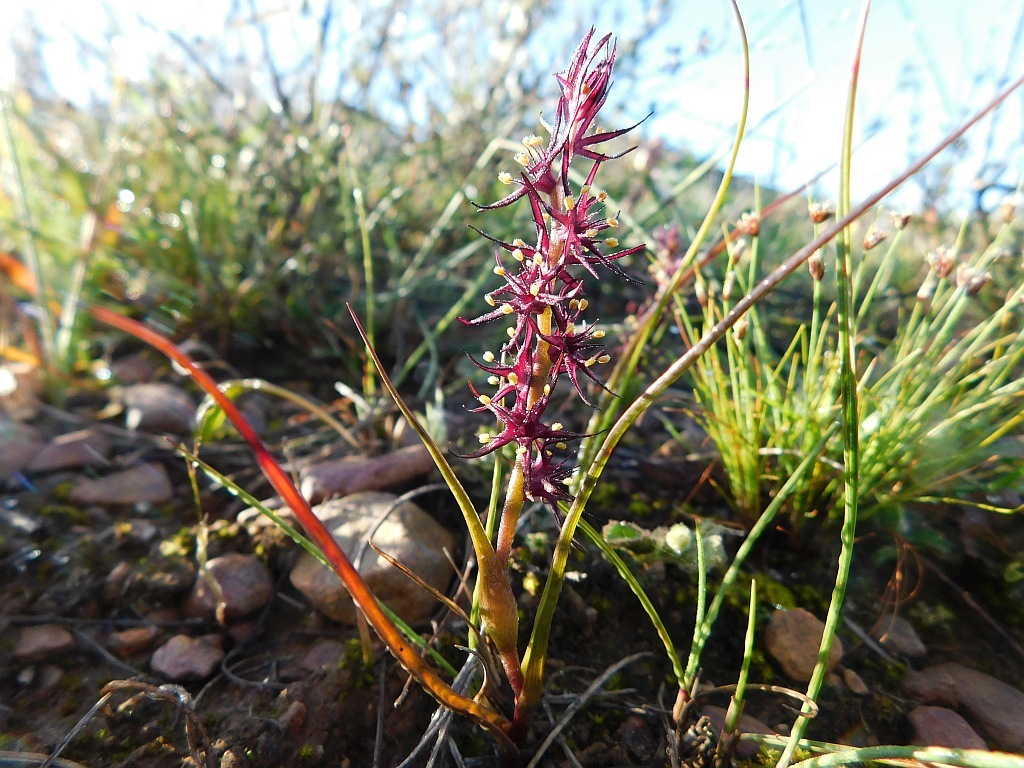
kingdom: Plantae
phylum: Tracheophyta
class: Liliopsida
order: Liliales
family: Colchicaceae
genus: Wurmbea
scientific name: Wurmbea marginata
